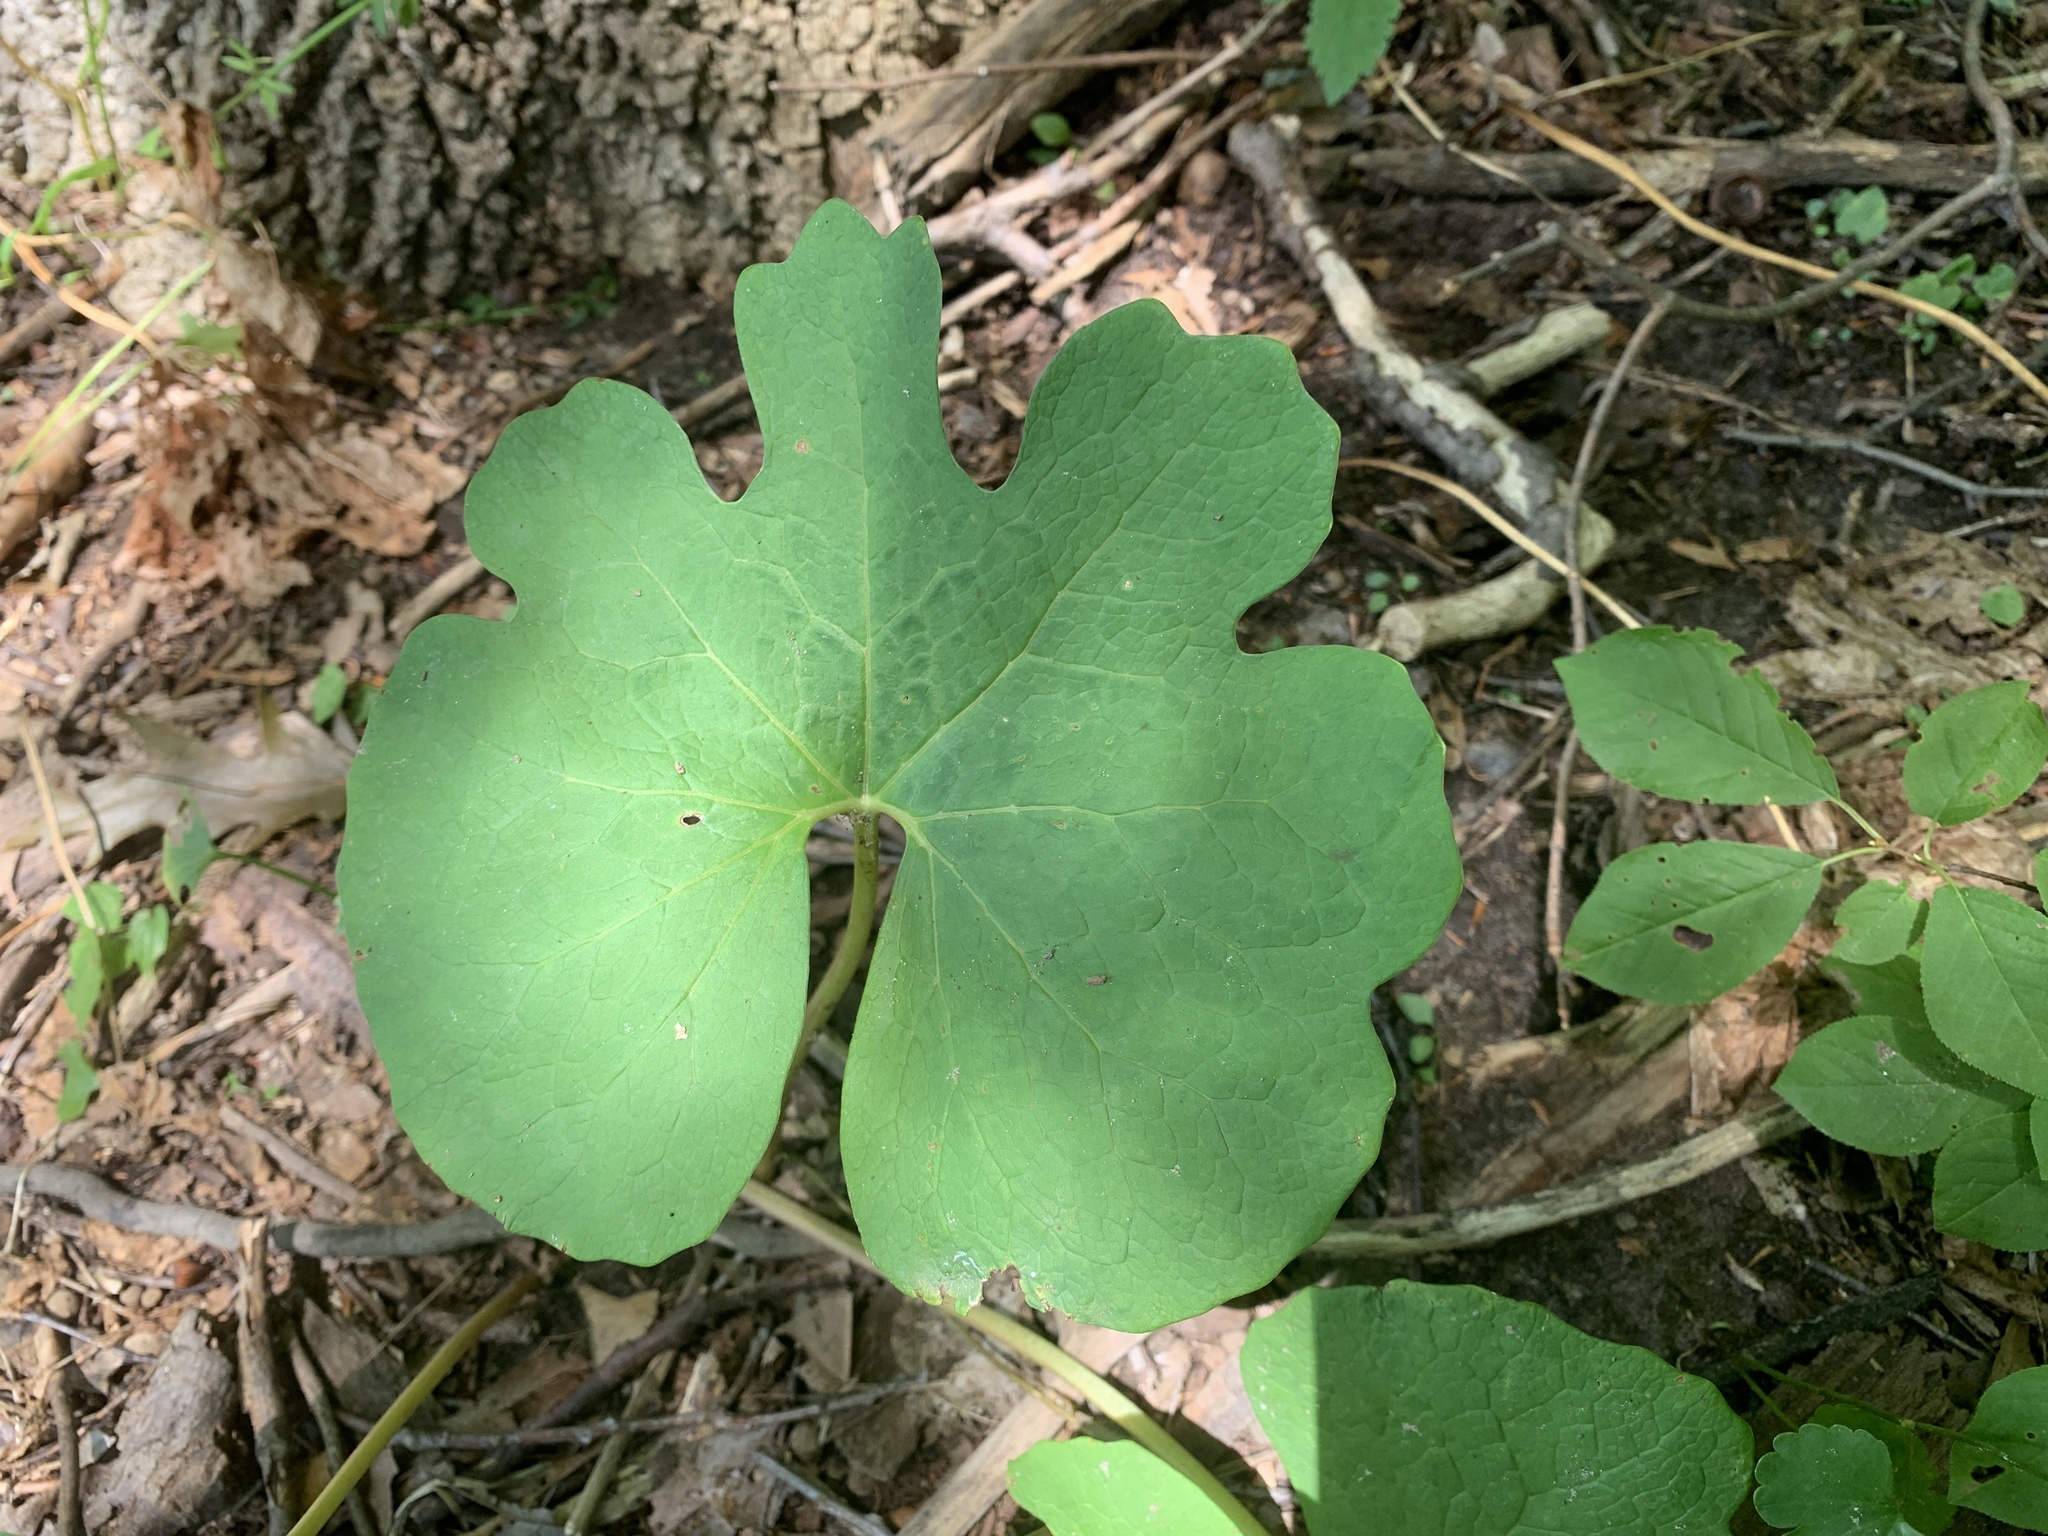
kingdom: Plantae
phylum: Tracheophyta
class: Magnoliopsida
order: Ranunculales
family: Papaveraceae
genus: Sanguinaria
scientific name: Sanguinaria canadensis
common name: Bloodroot
